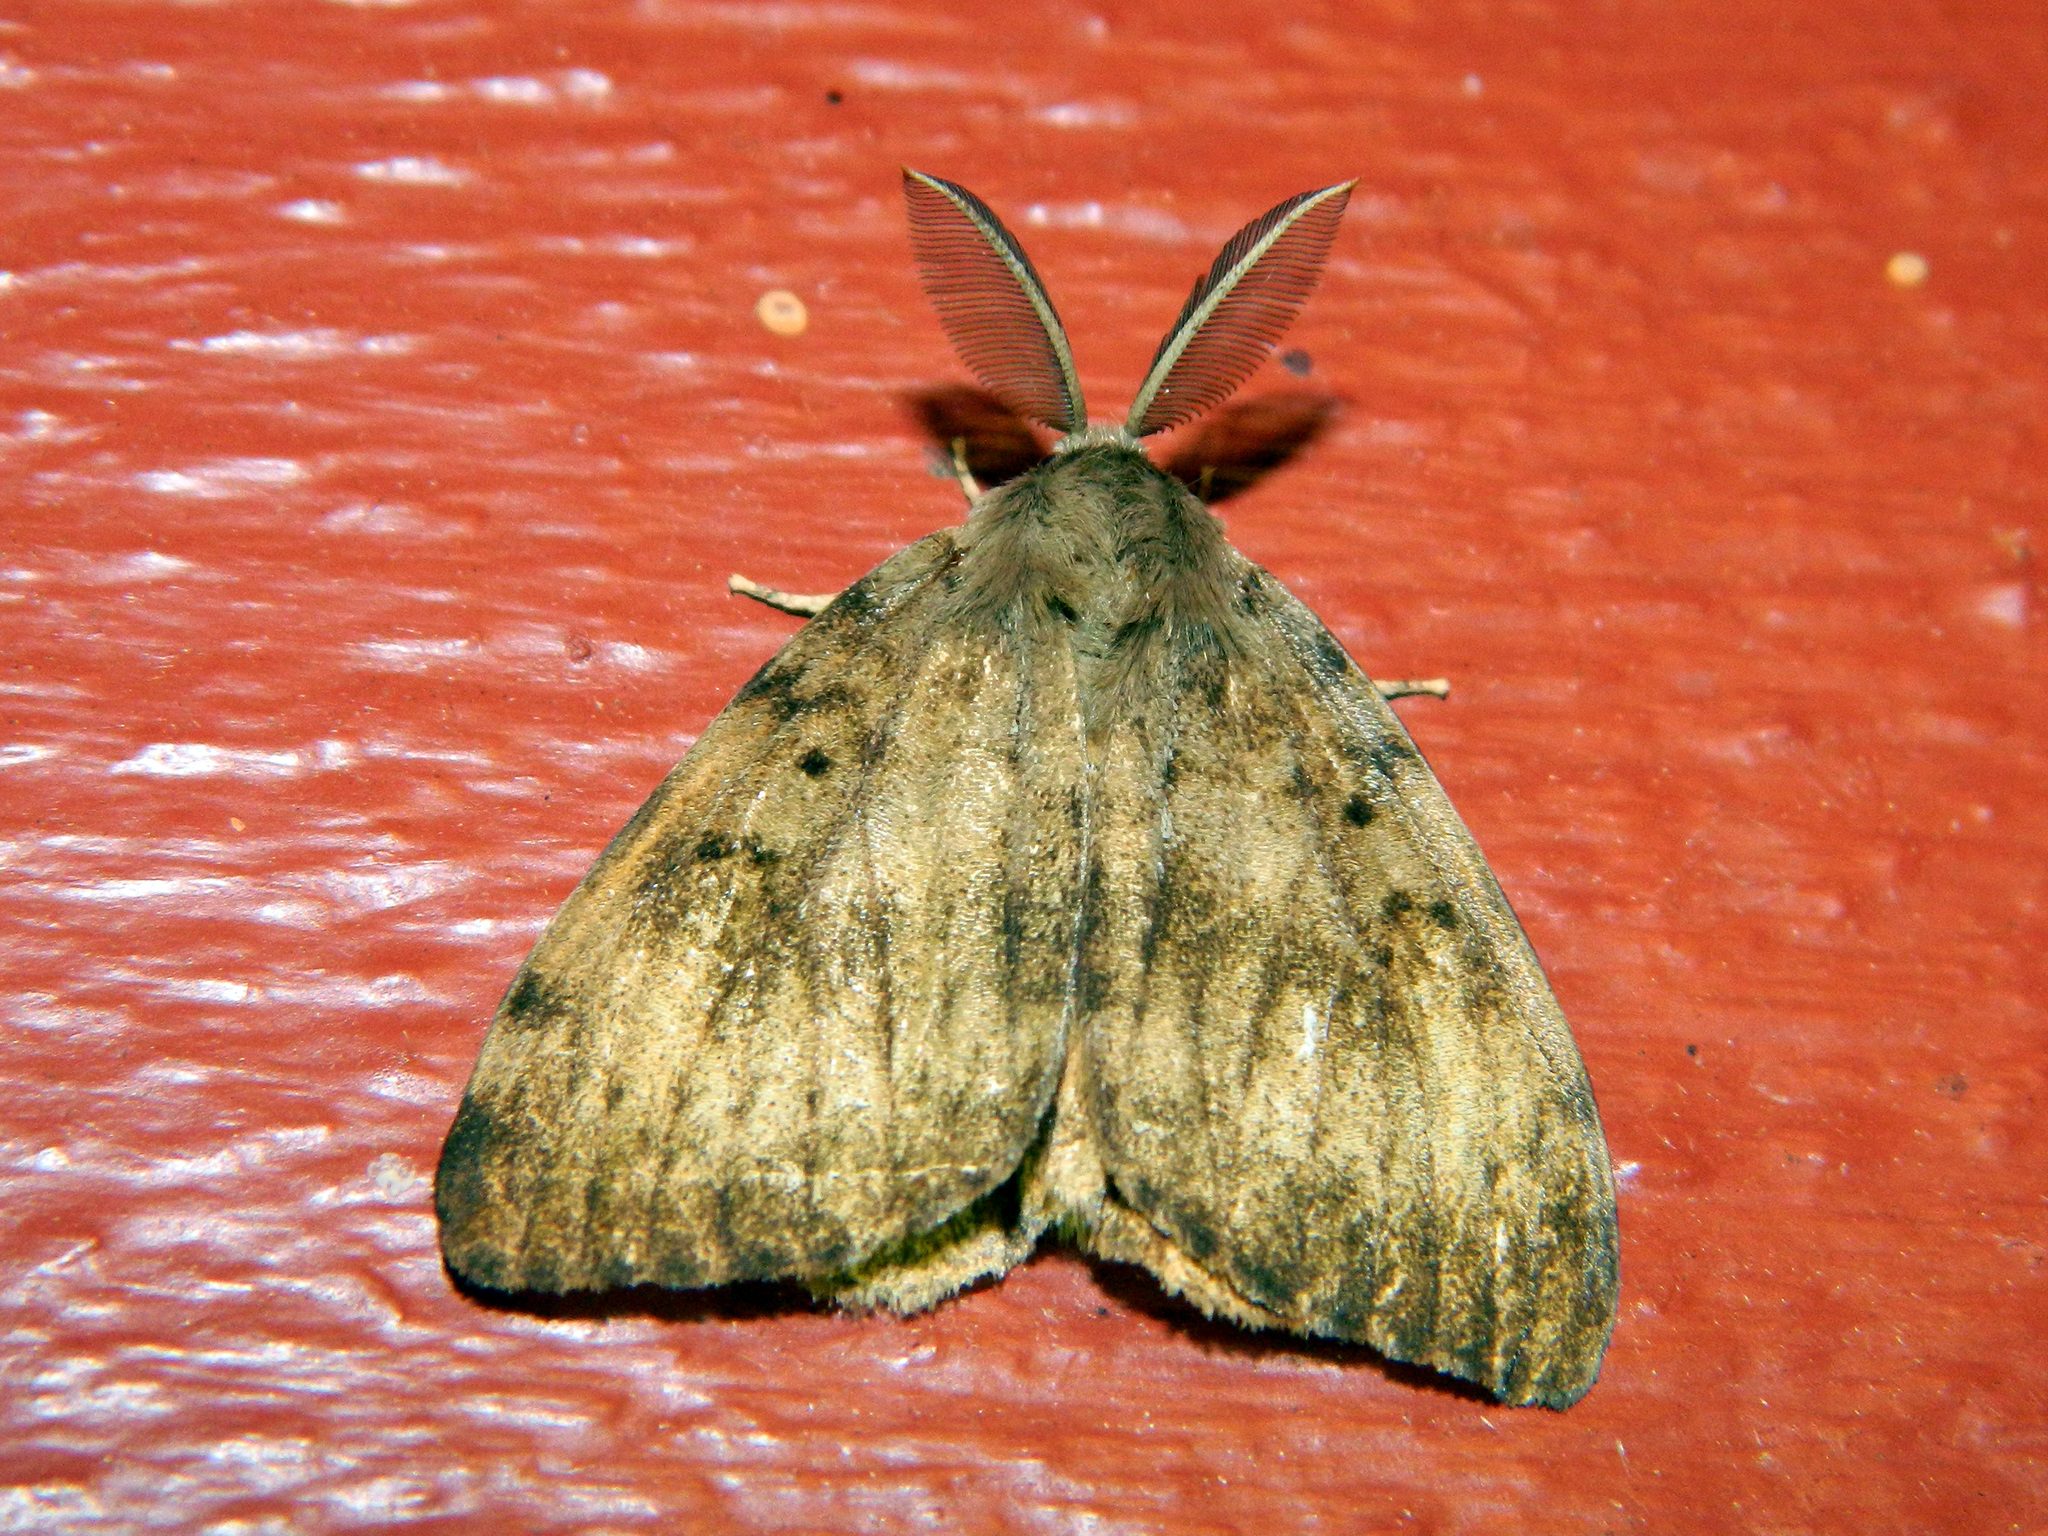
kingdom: Animalia
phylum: Arthropoda
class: Insecta
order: Lepidoptera
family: Erebidae
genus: Lymantria
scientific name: Lymantria dispar
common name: Gypsy moth
